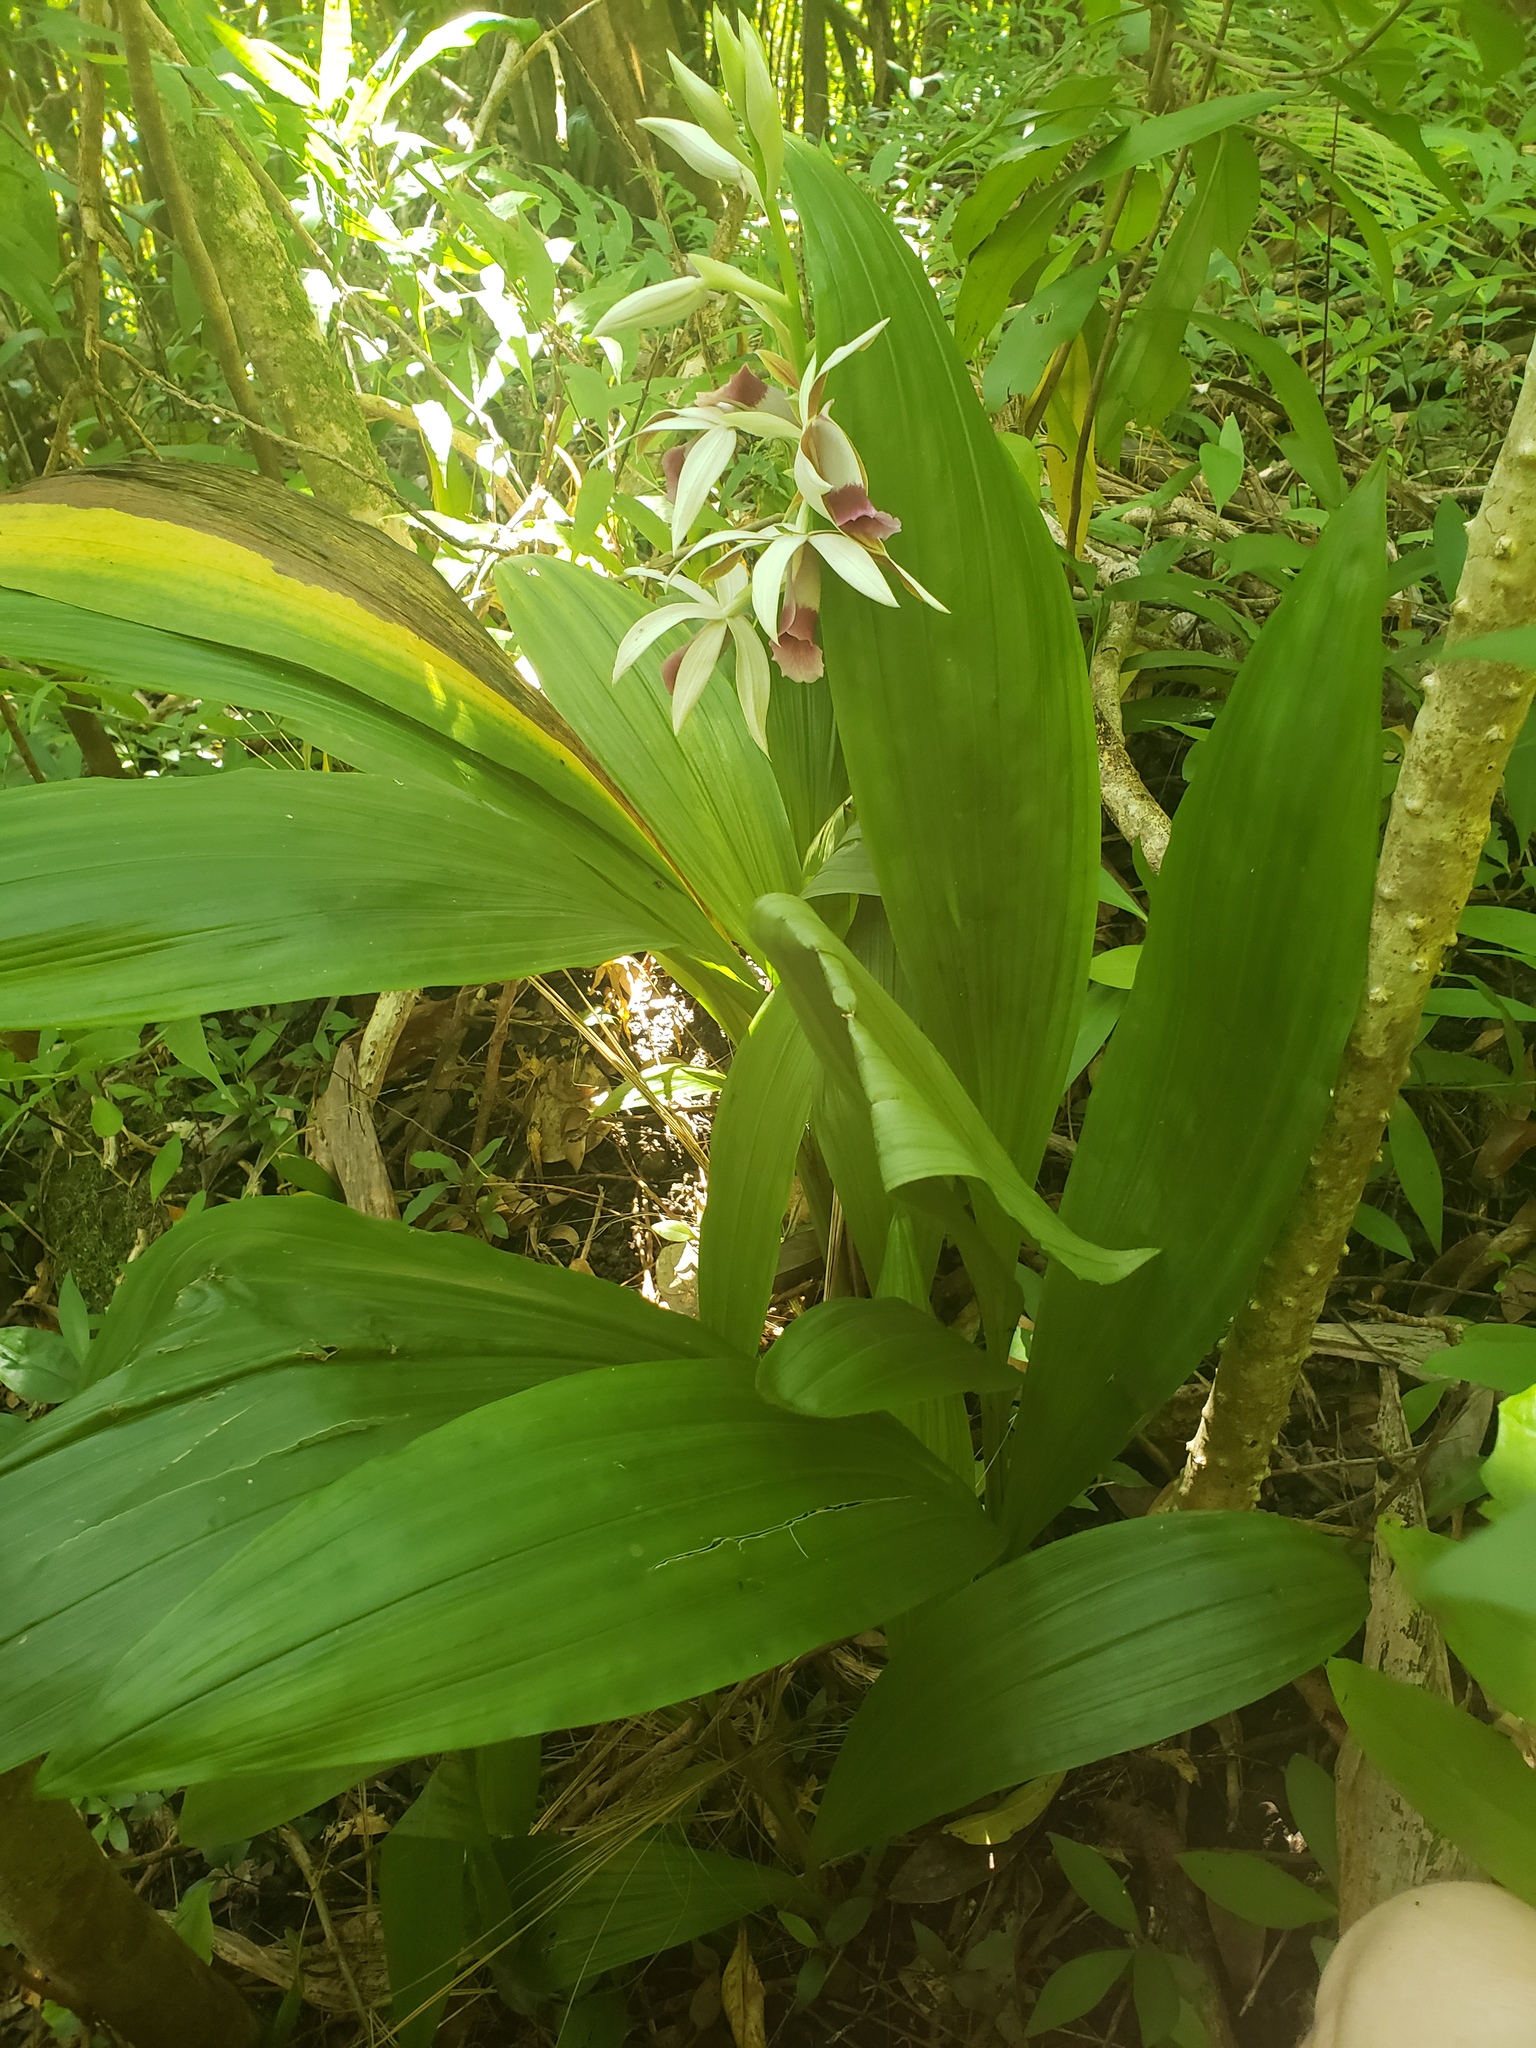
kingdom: Plantae
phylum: Tracheophyta
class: Liliopsida
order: Asparagales
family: Orchidaceae
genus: Calanthe
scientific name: Calanthe tankervilleae
